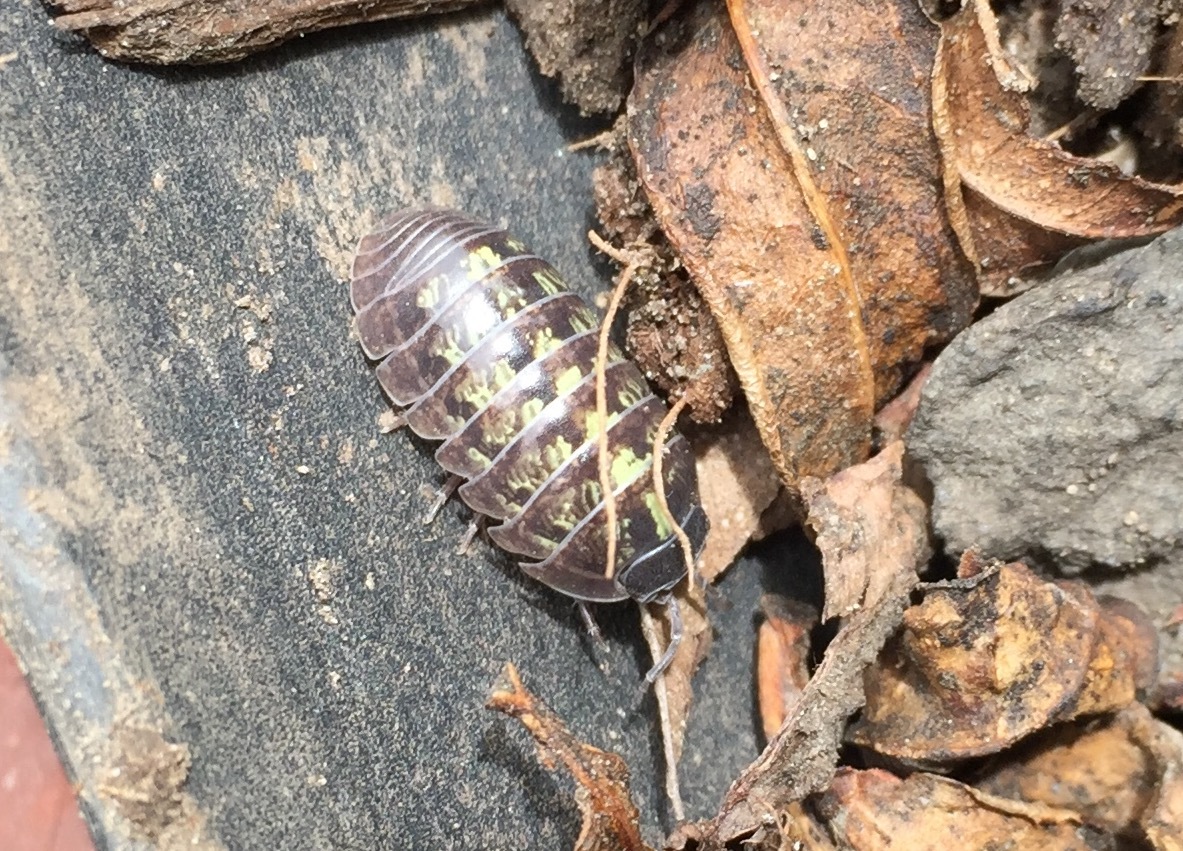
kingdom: Animalia
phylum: Arthropoda
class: Malacostraca
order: Isopoda
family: Armadillidiidae
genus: Armadillidium
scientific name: Armadillidium vulgare
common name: Common pill woodlouse
